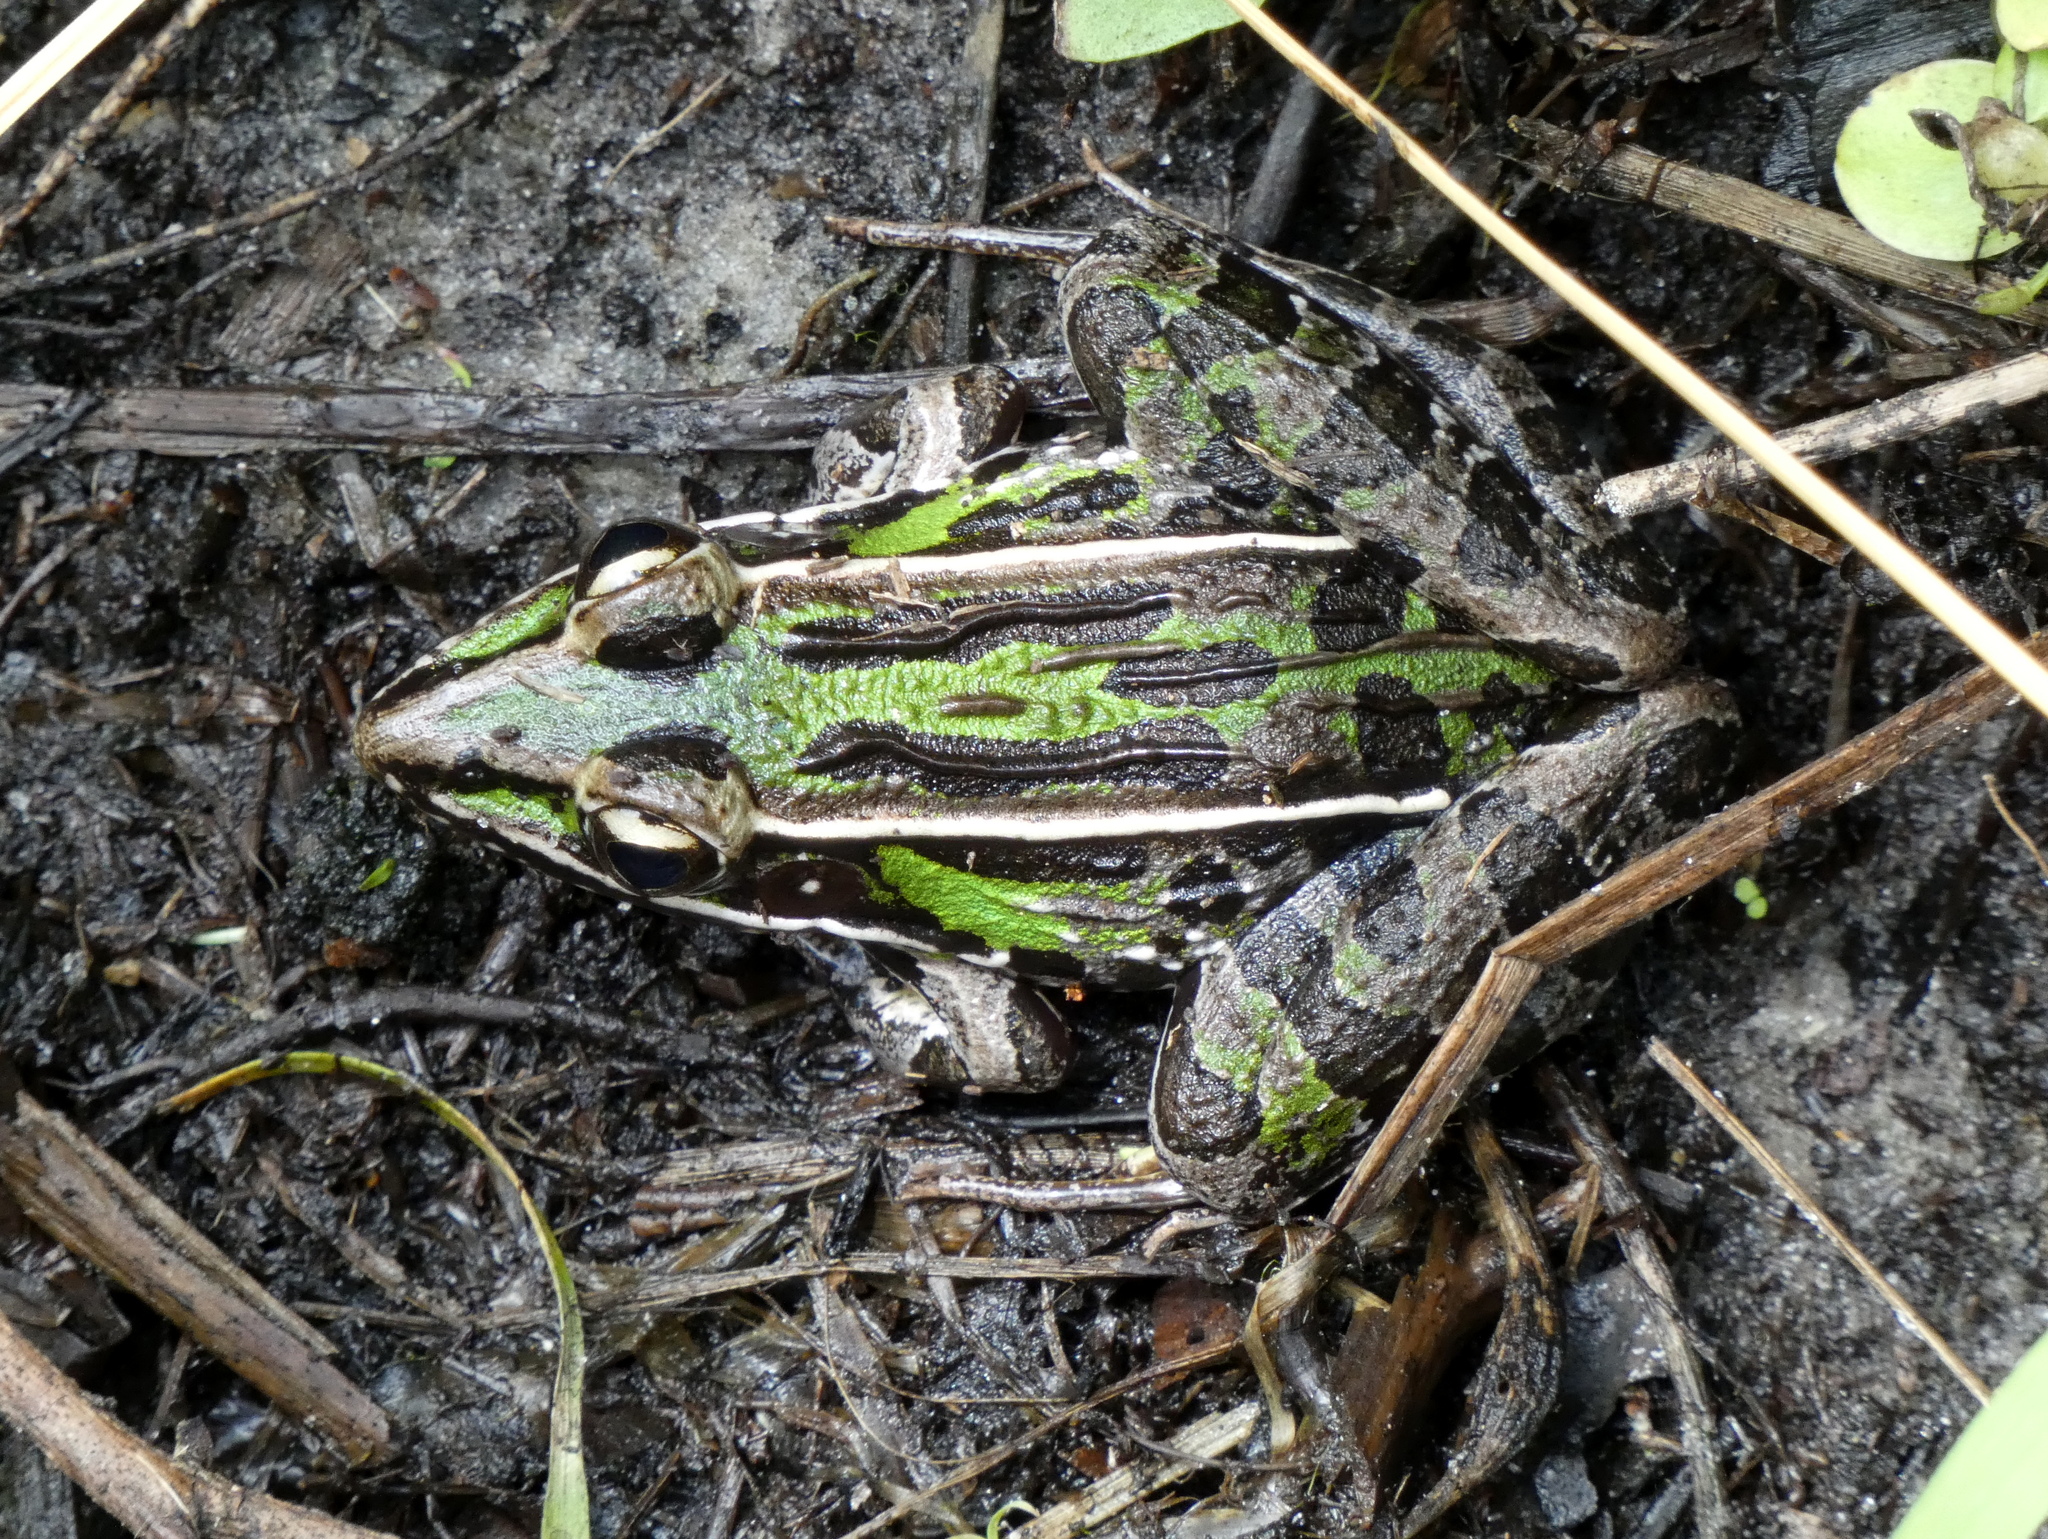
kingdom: Animalia
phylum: Chordata
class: Amphibia
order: Anura
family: Ranidae
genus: Lithobates
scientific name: Lithobates sphenocephalus
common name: Southern leopard frog
